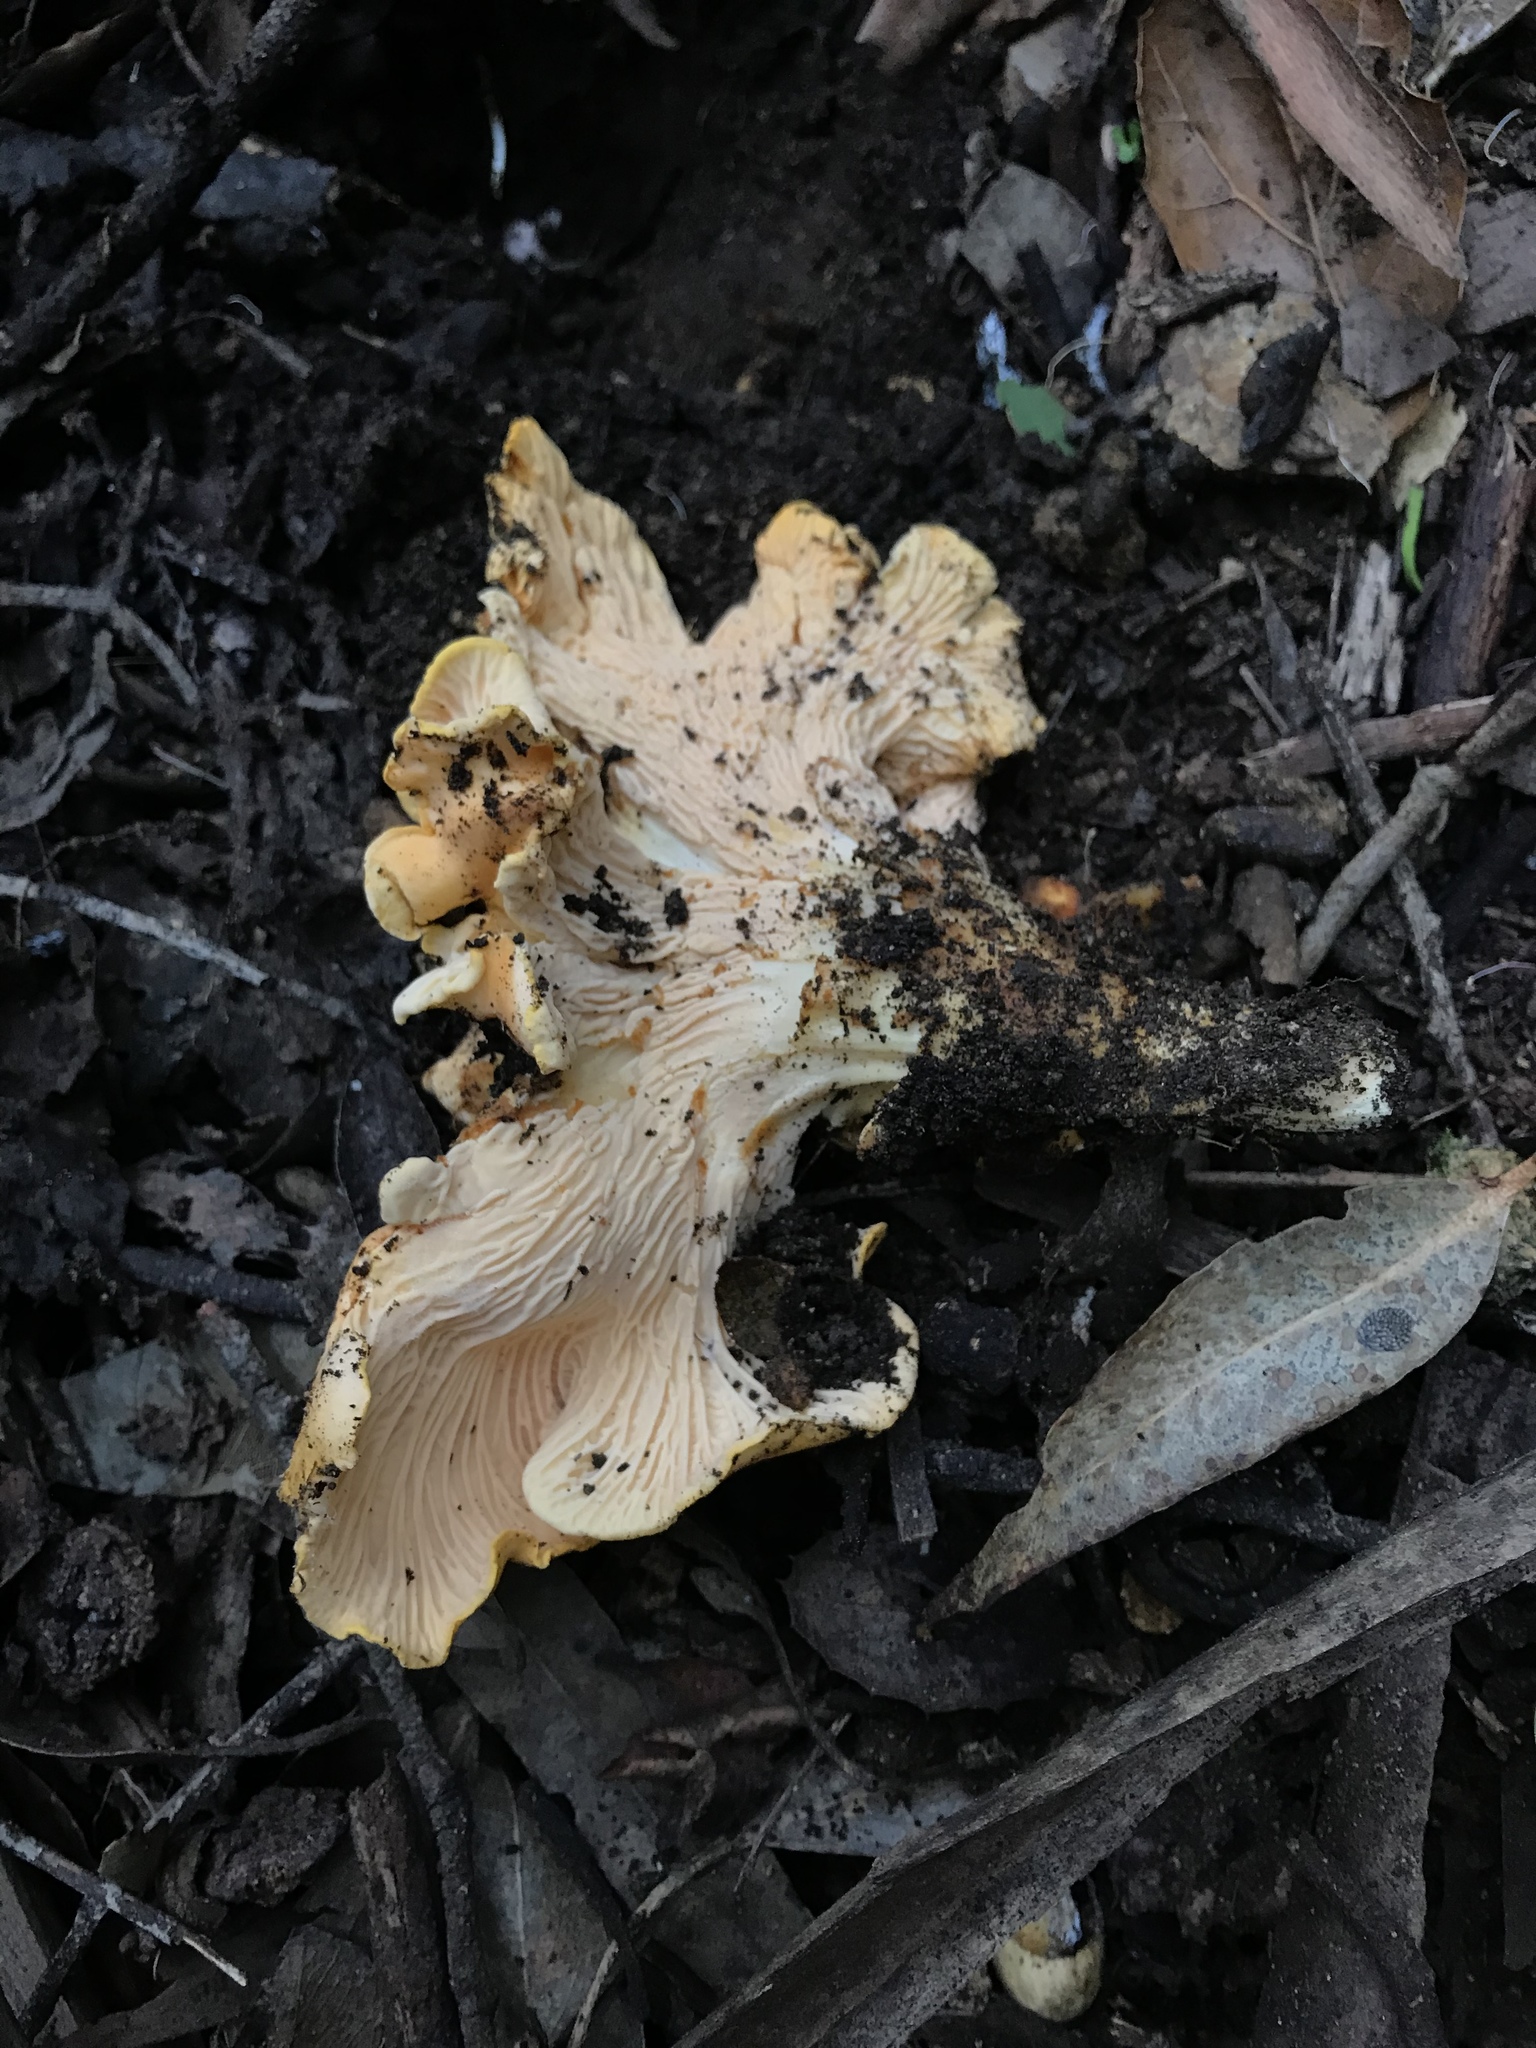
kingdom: Fungi
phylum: Basidiomycota
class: Agaricomycetes
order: Cantharellales
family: Hydnaceae
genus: Cantharellus
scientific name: Cantharellus californicus
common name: California golden chanterelle
